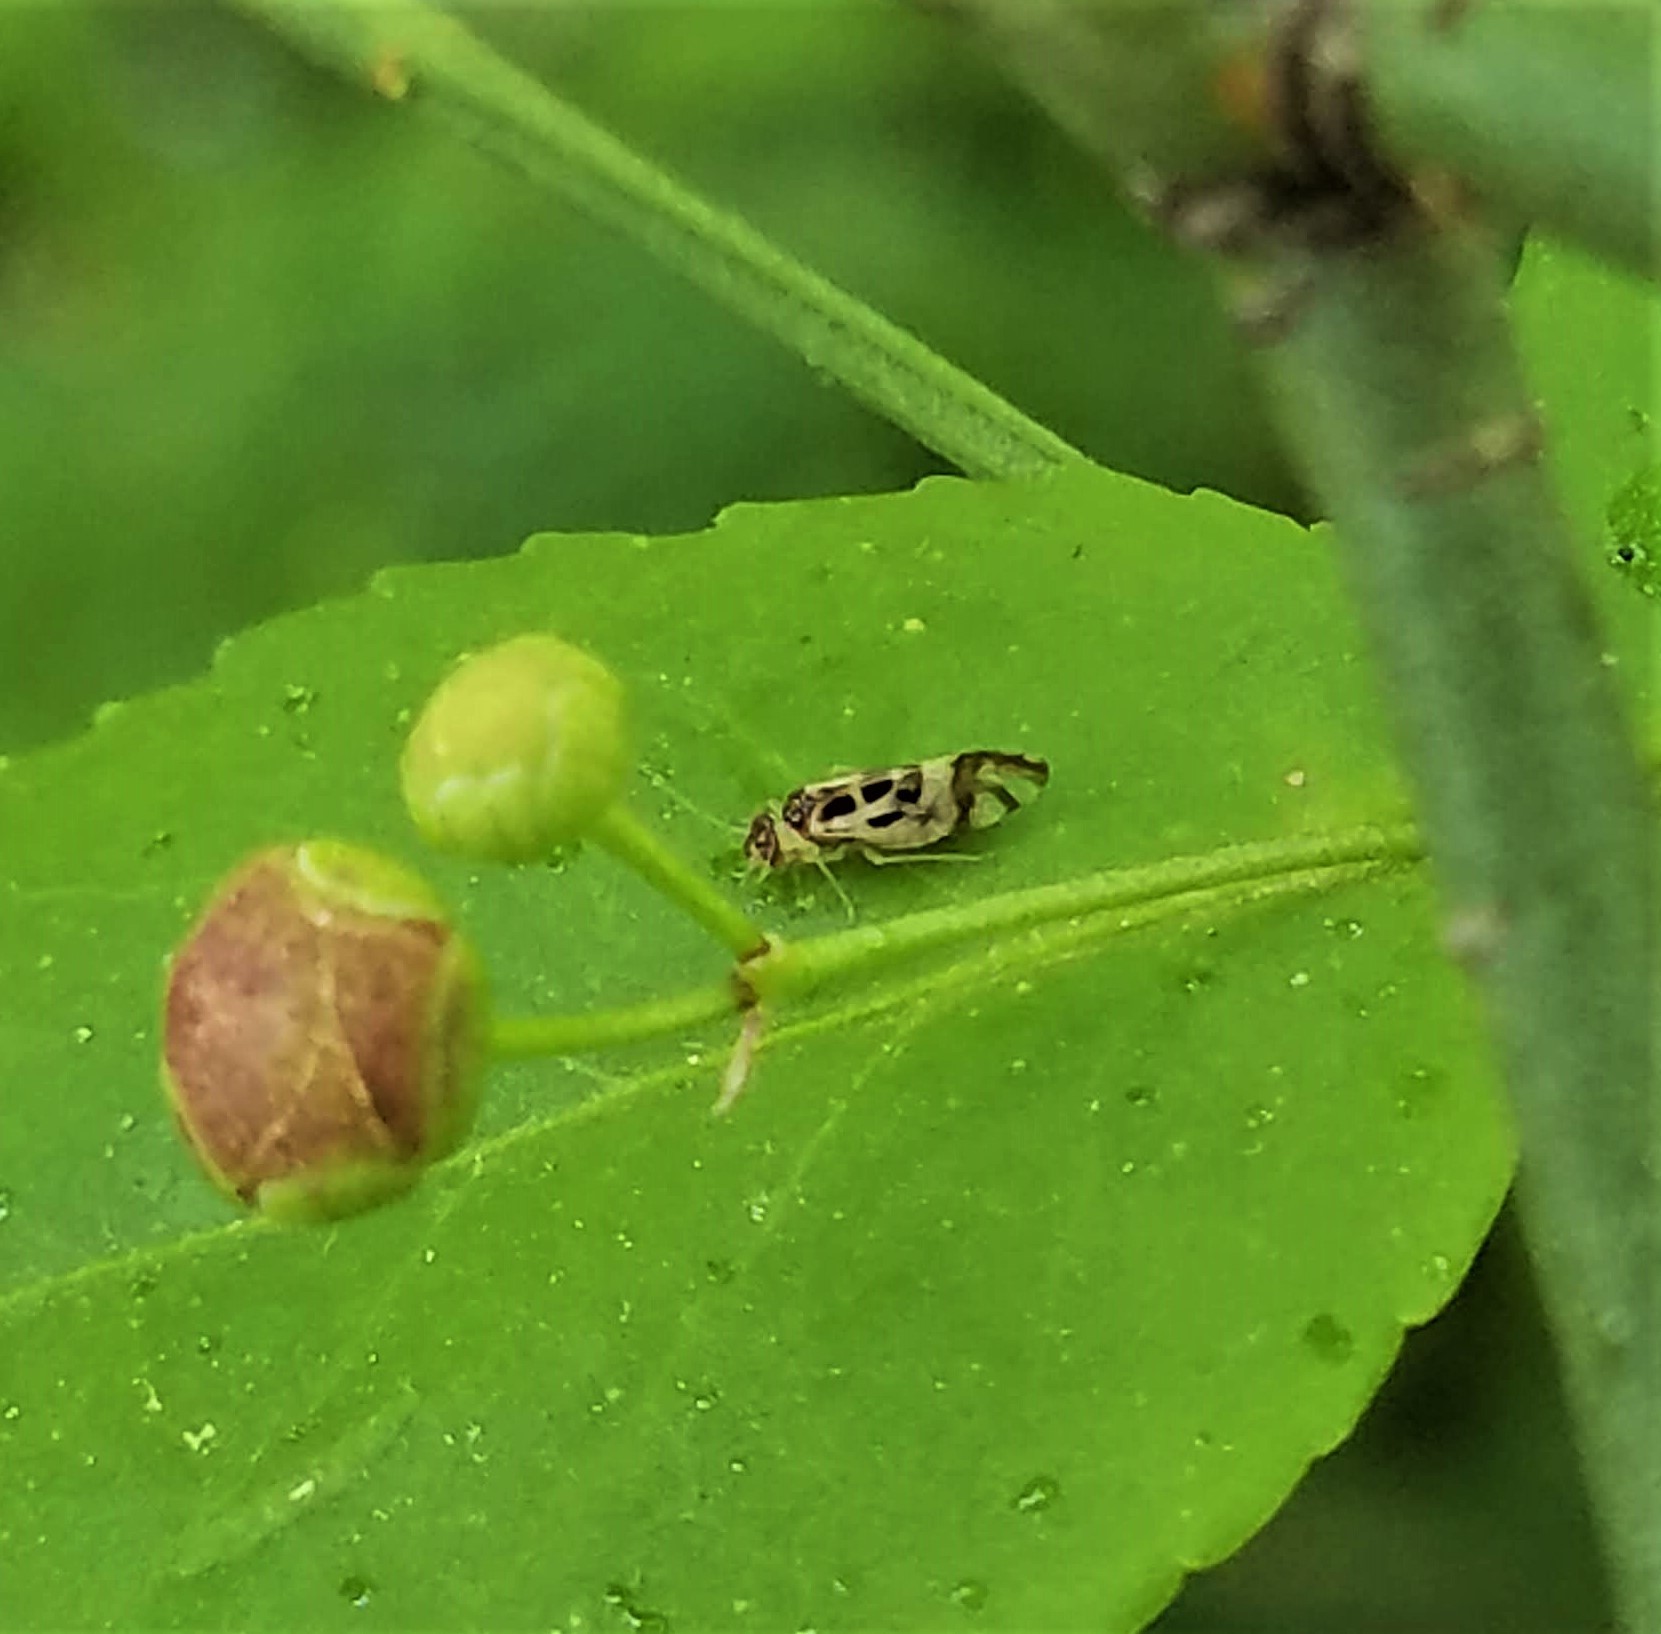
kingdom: Animalia
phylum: Arthropoda
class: Insecta
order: Psocodea
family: Stenopsocidae
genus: Graphopsocus
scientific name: Graphopsocus cruciatus
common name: Lizard bark louse
